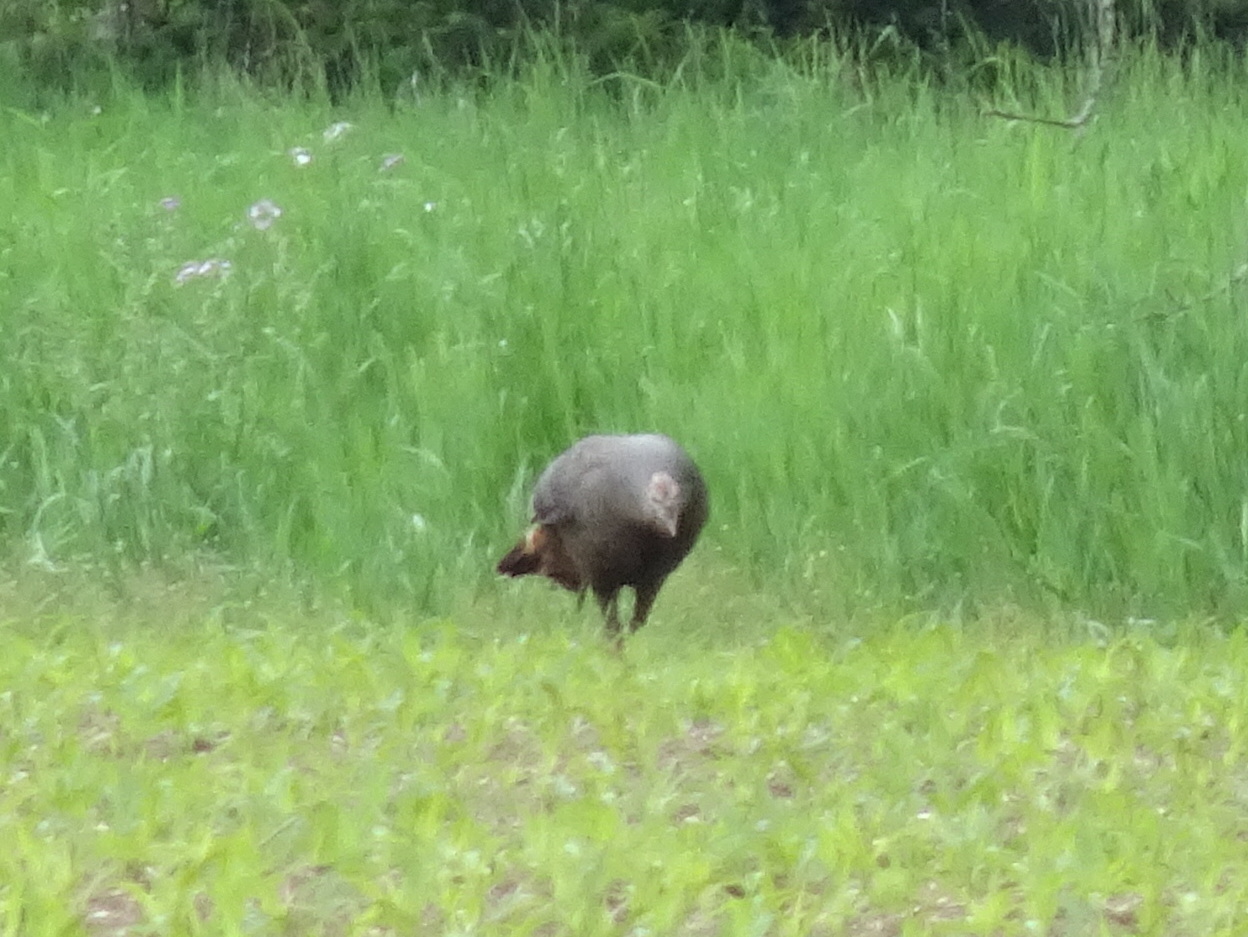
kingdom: Animalia
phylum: Chordata
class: Aves
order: Galliformes
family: Phasianidae
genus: Meleagris
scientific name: Meleagris gallopavo
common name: Wild turkey
